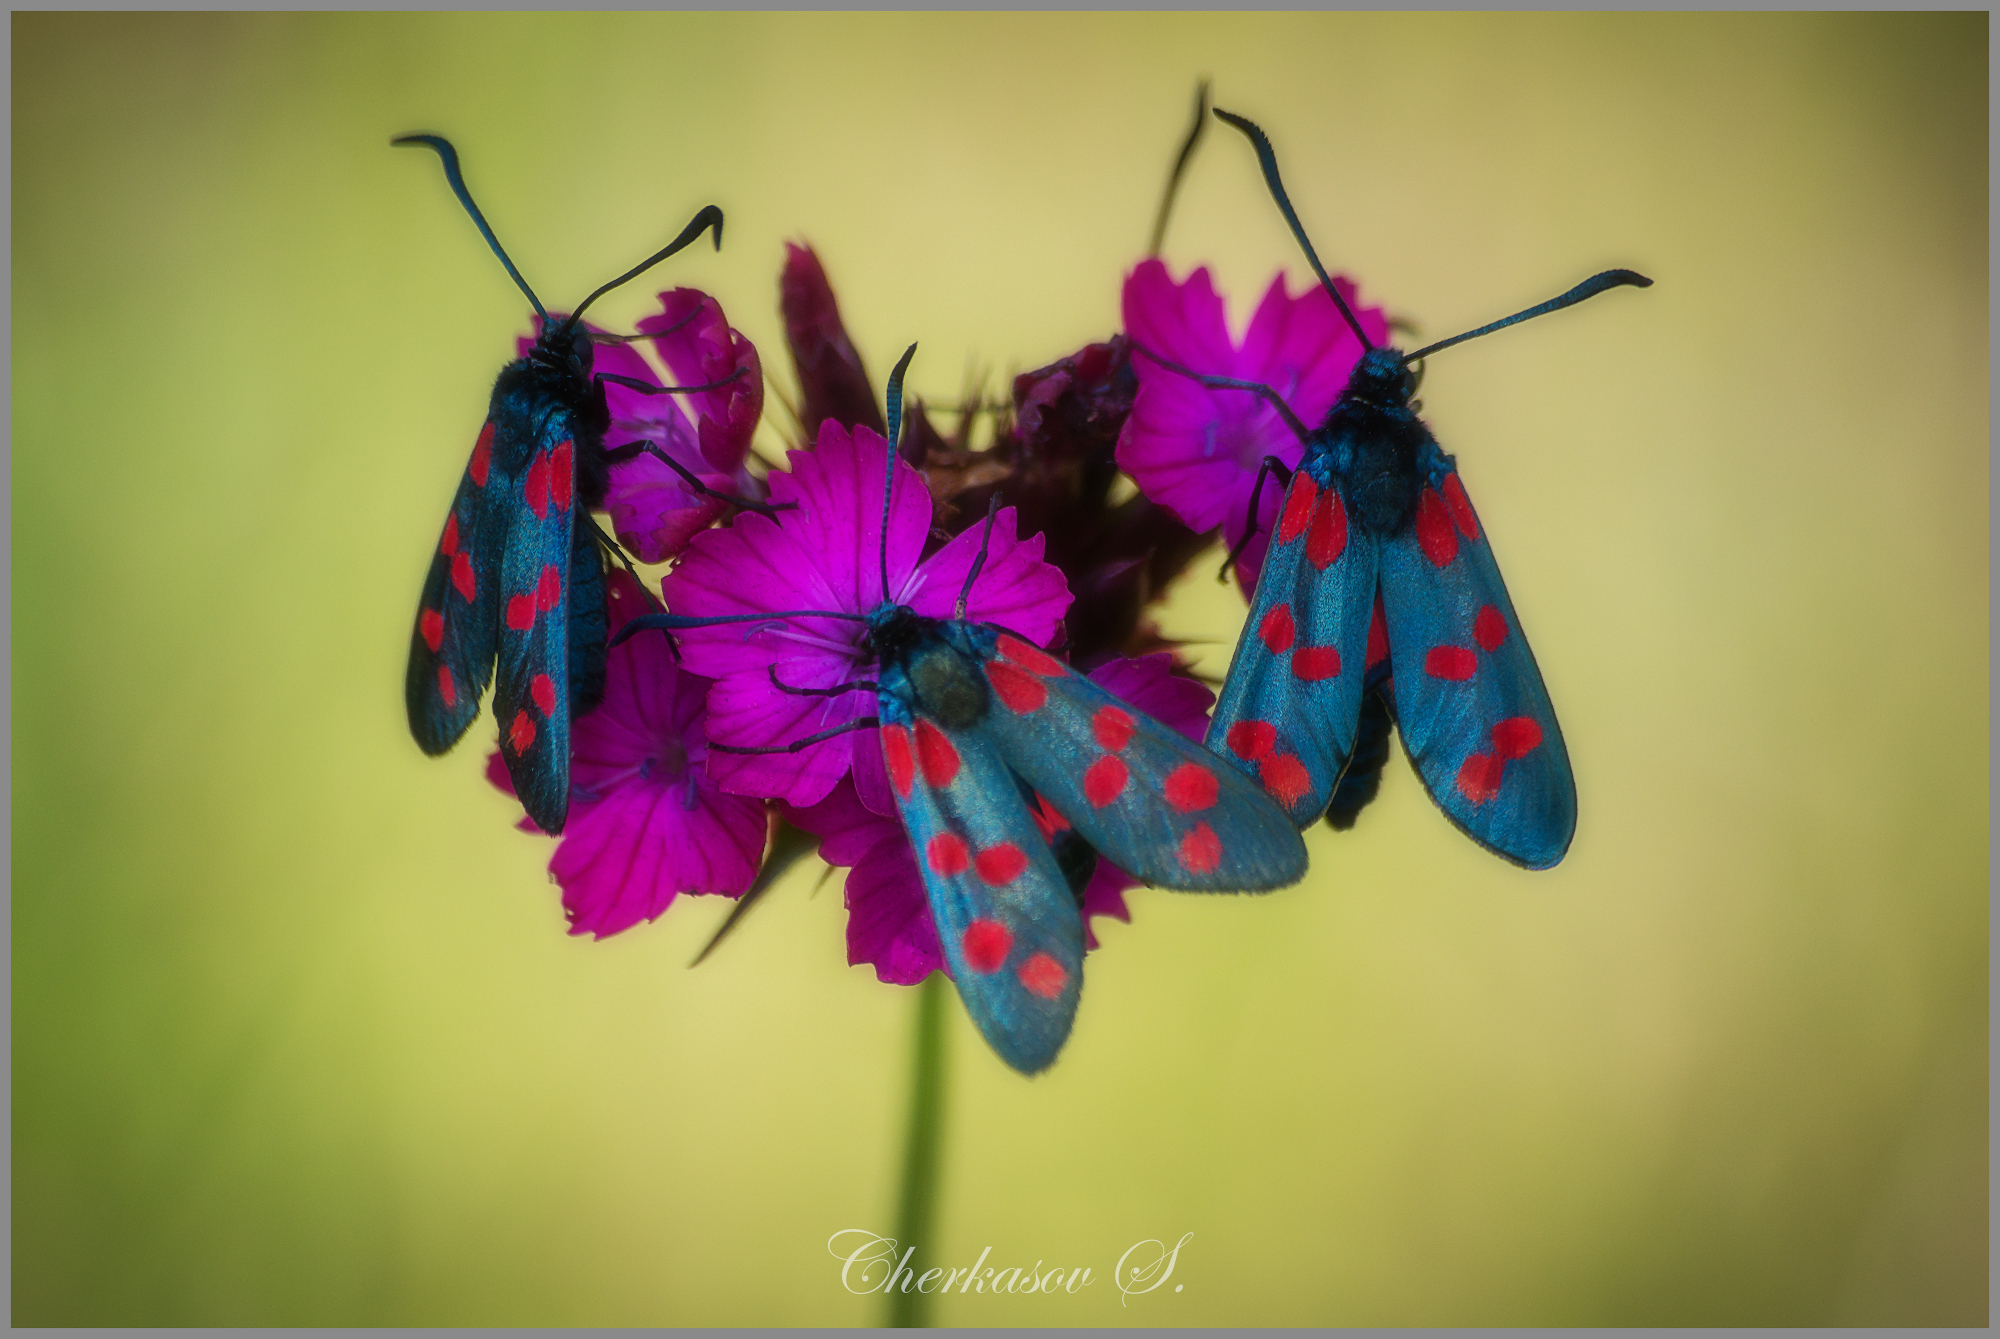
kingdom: Animalia
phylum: Arthropoda
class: Insecta
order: Lepidoptera
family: Zygaenidae
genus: Zygaena
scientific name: Zygaena filipendulae
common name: Six-spot burnet
